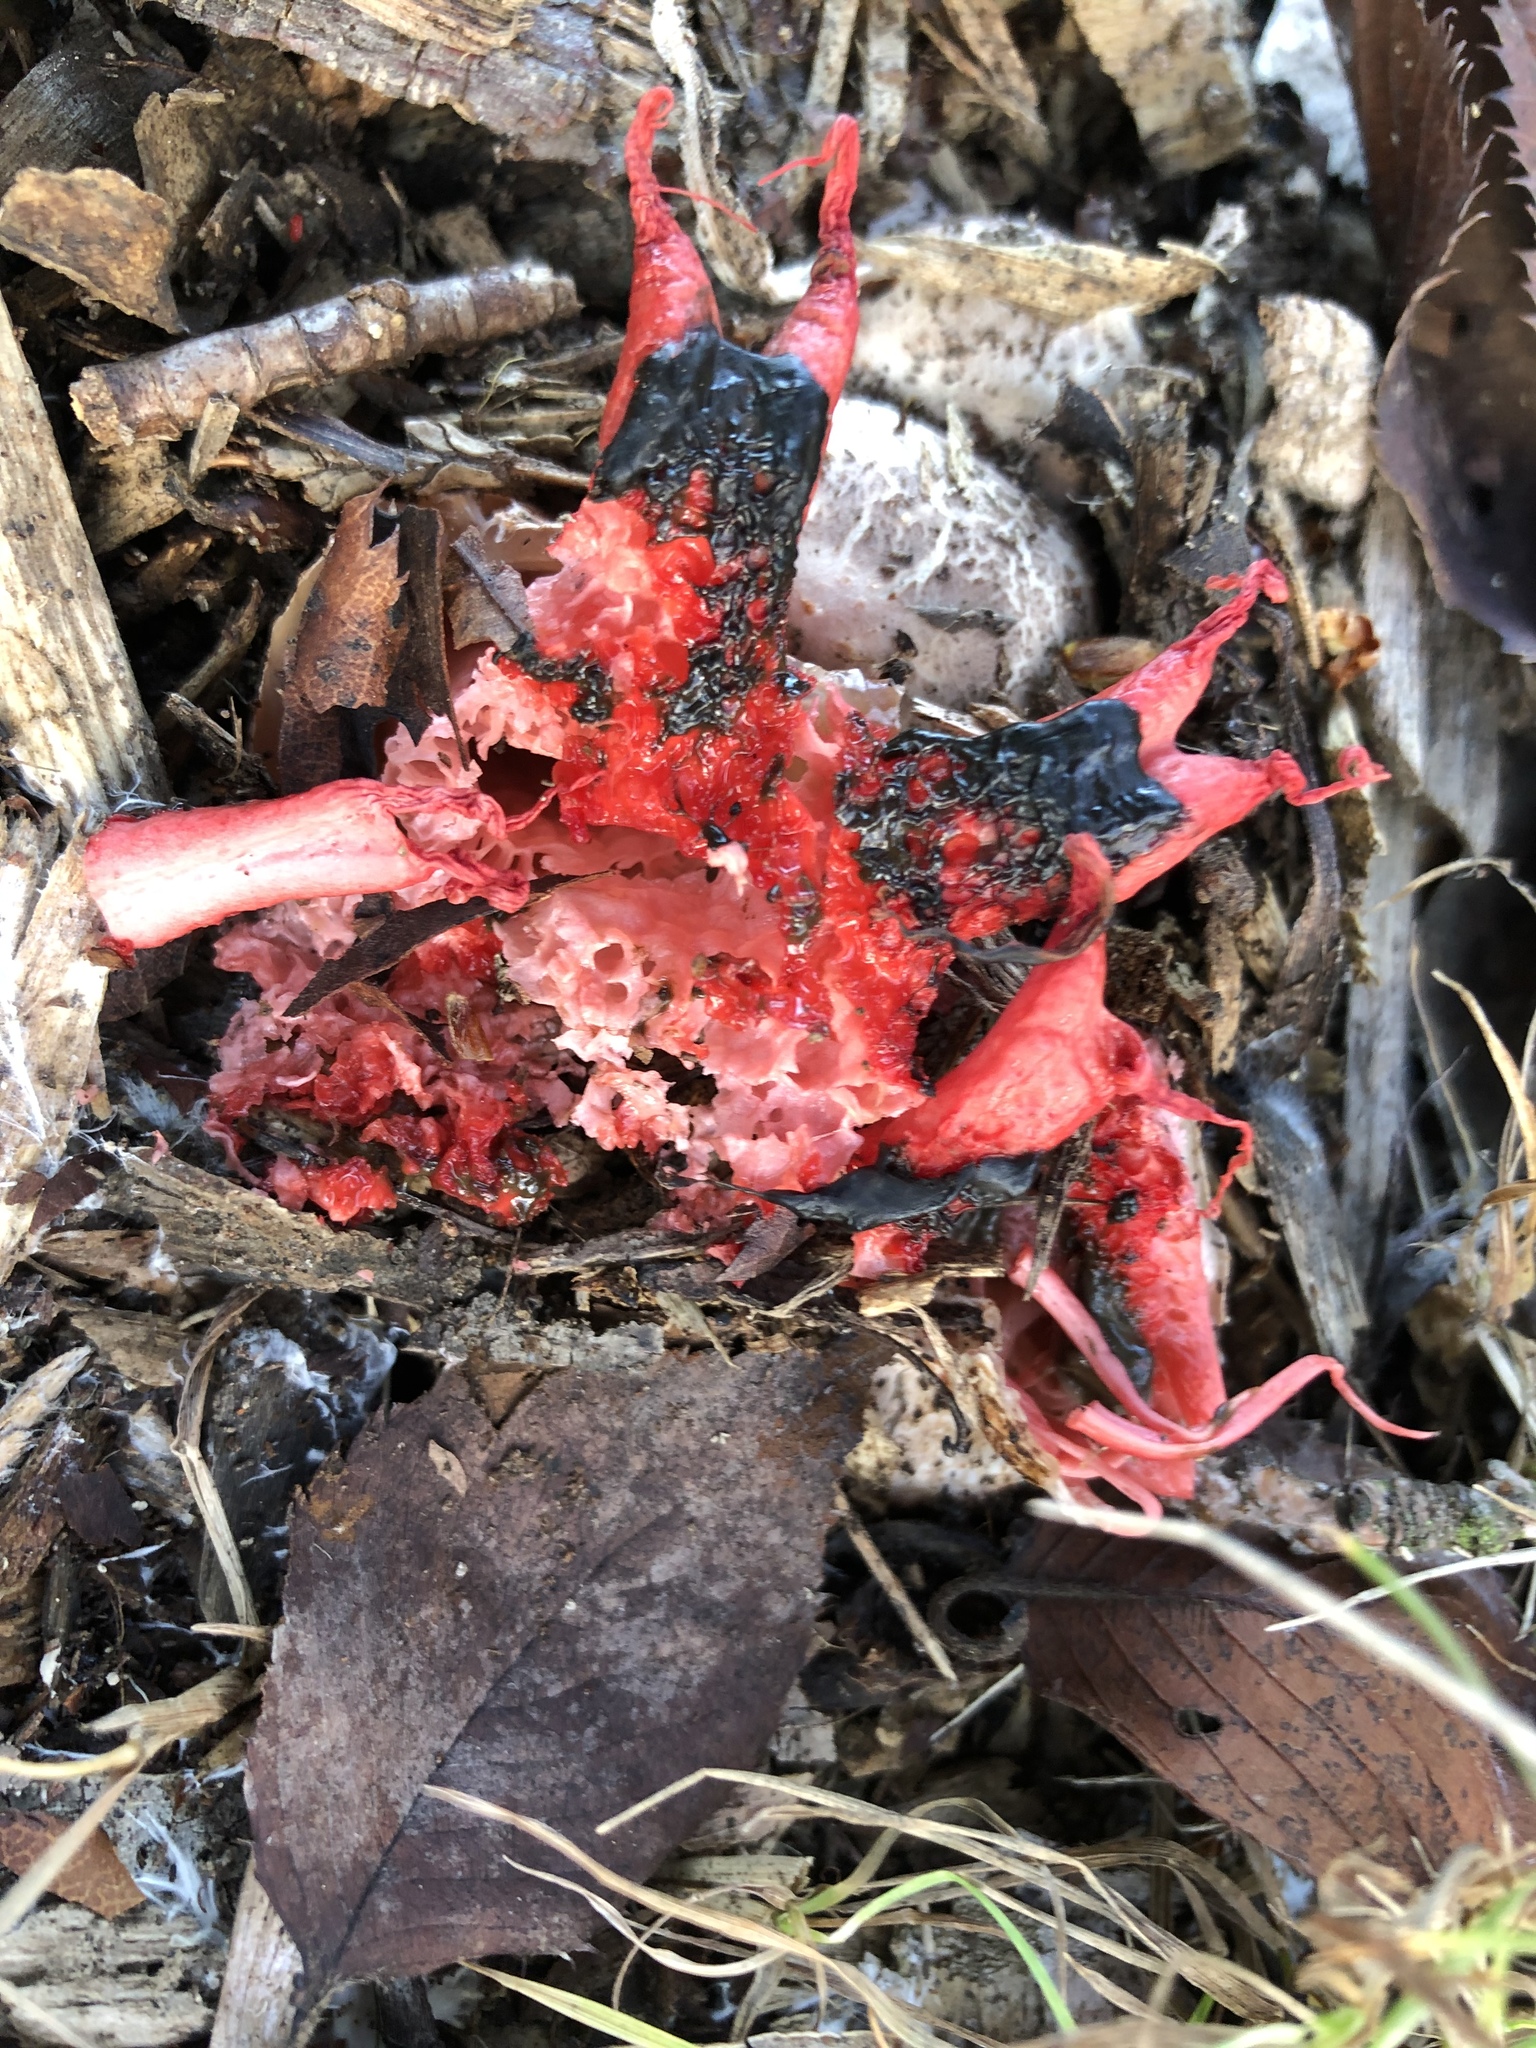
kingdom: Fungi
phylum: Basidiomycota
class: Agaricomycetes
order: Phallales
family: Phallaceae
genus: Aseroe
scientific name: Aseroe rubra
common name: Starfish fungus
